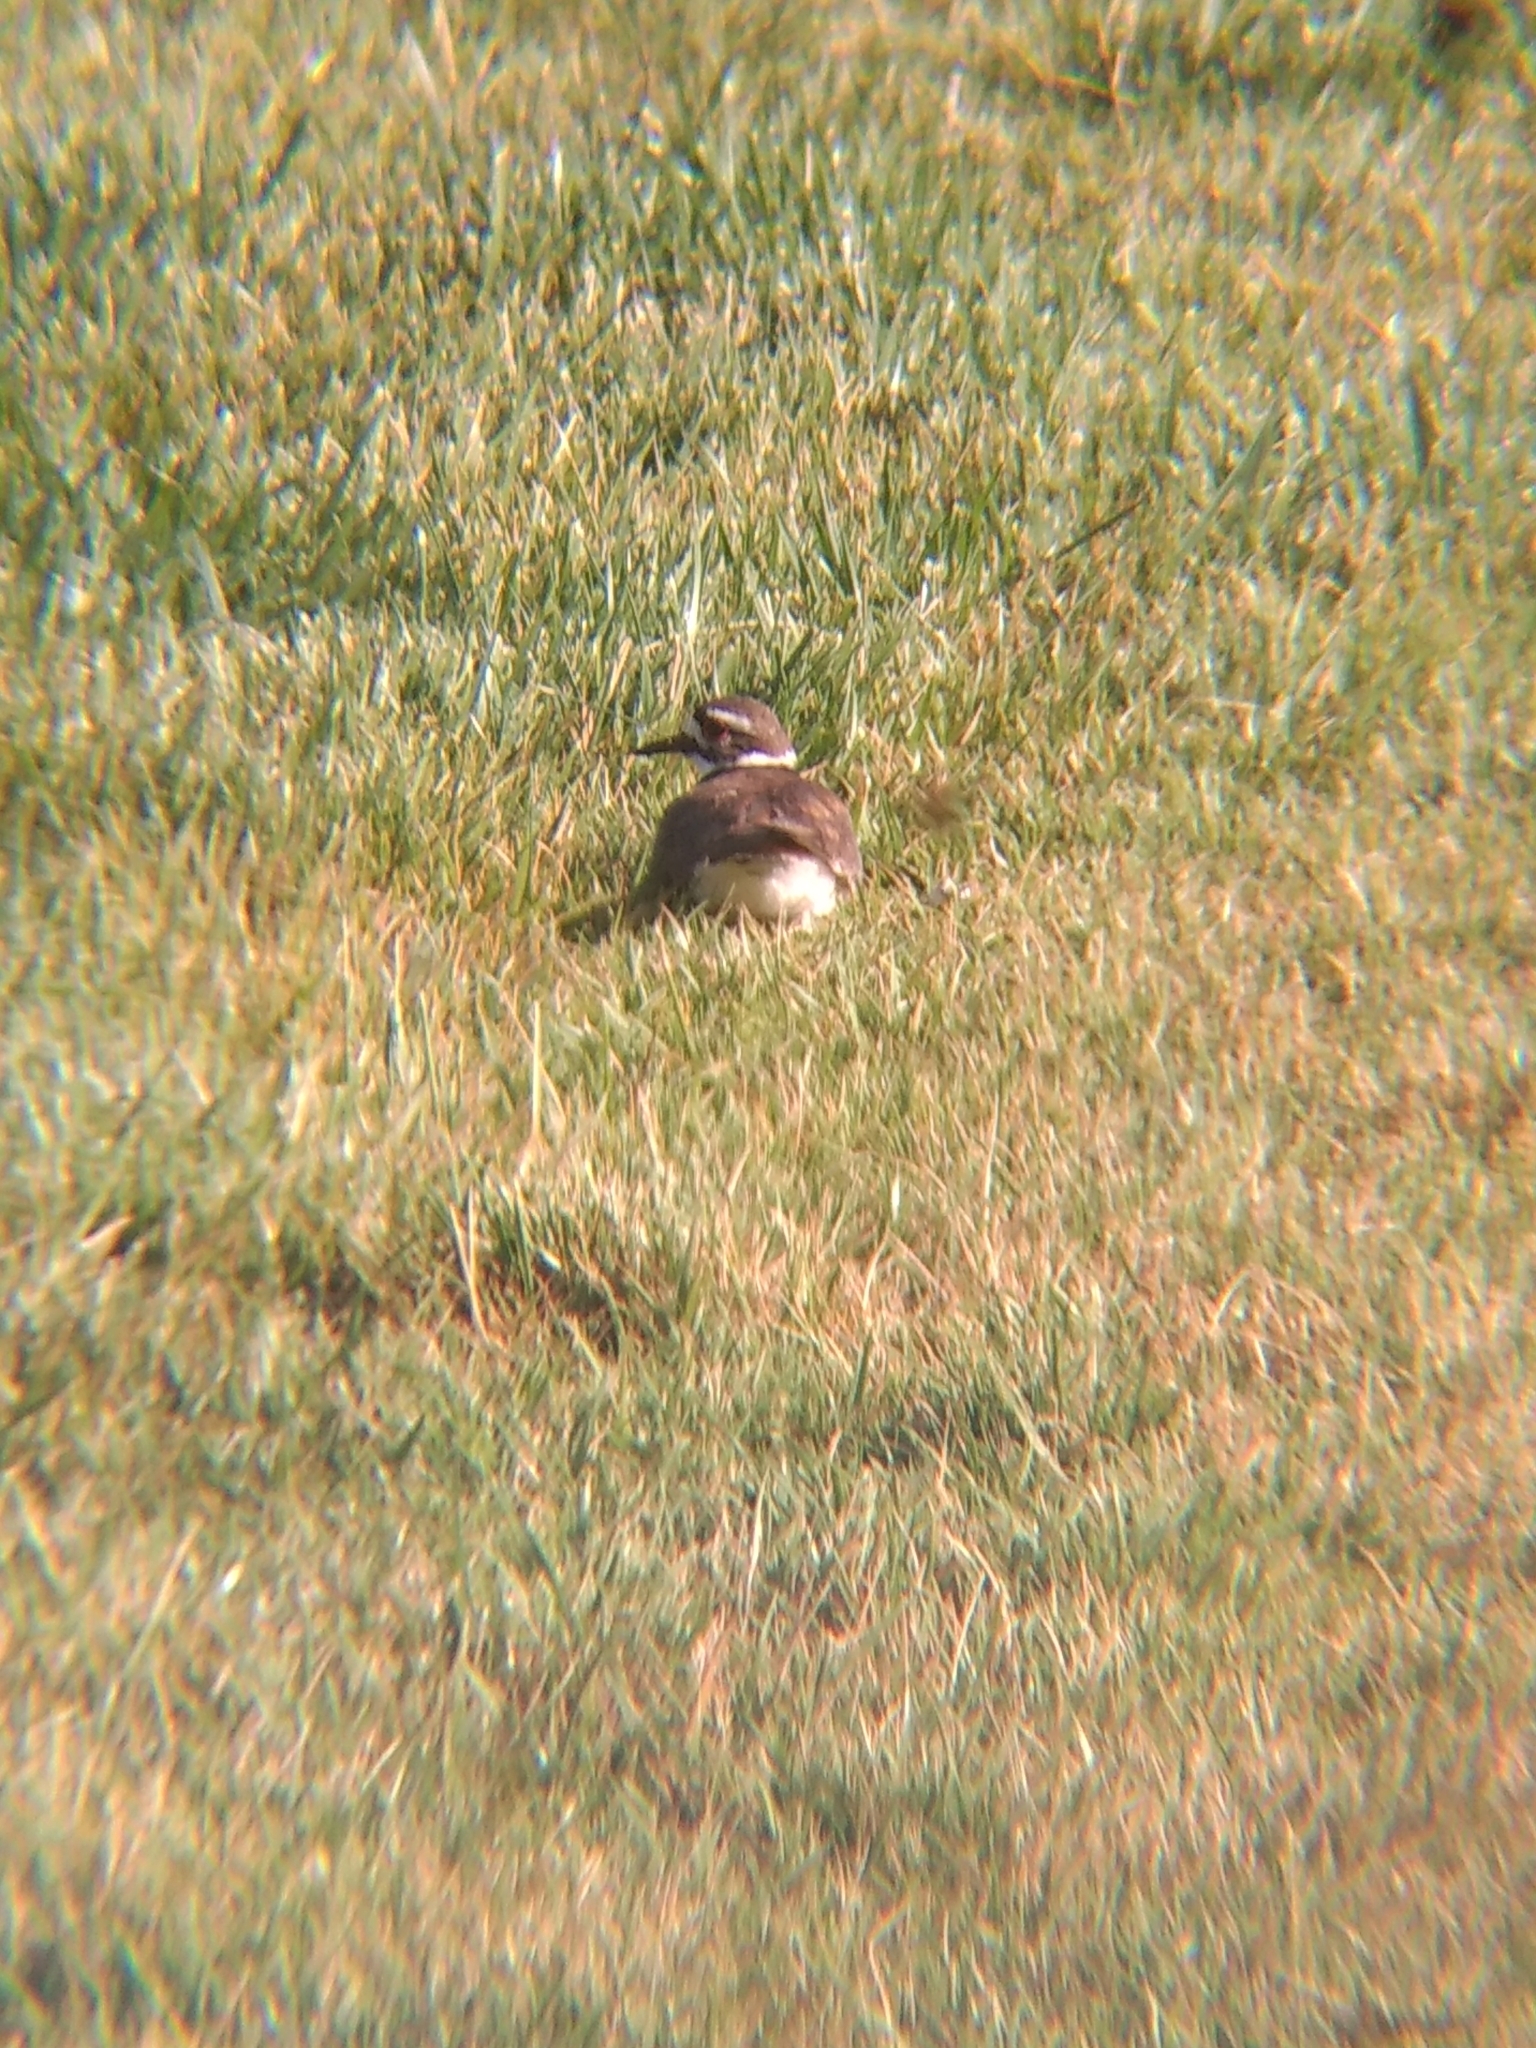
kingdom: Animalia
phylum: Chordata
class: Aves
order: Charadriiformes
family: Charadriidae
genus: Charadrius
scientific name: Charadrius vociferus
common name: Killdeer
